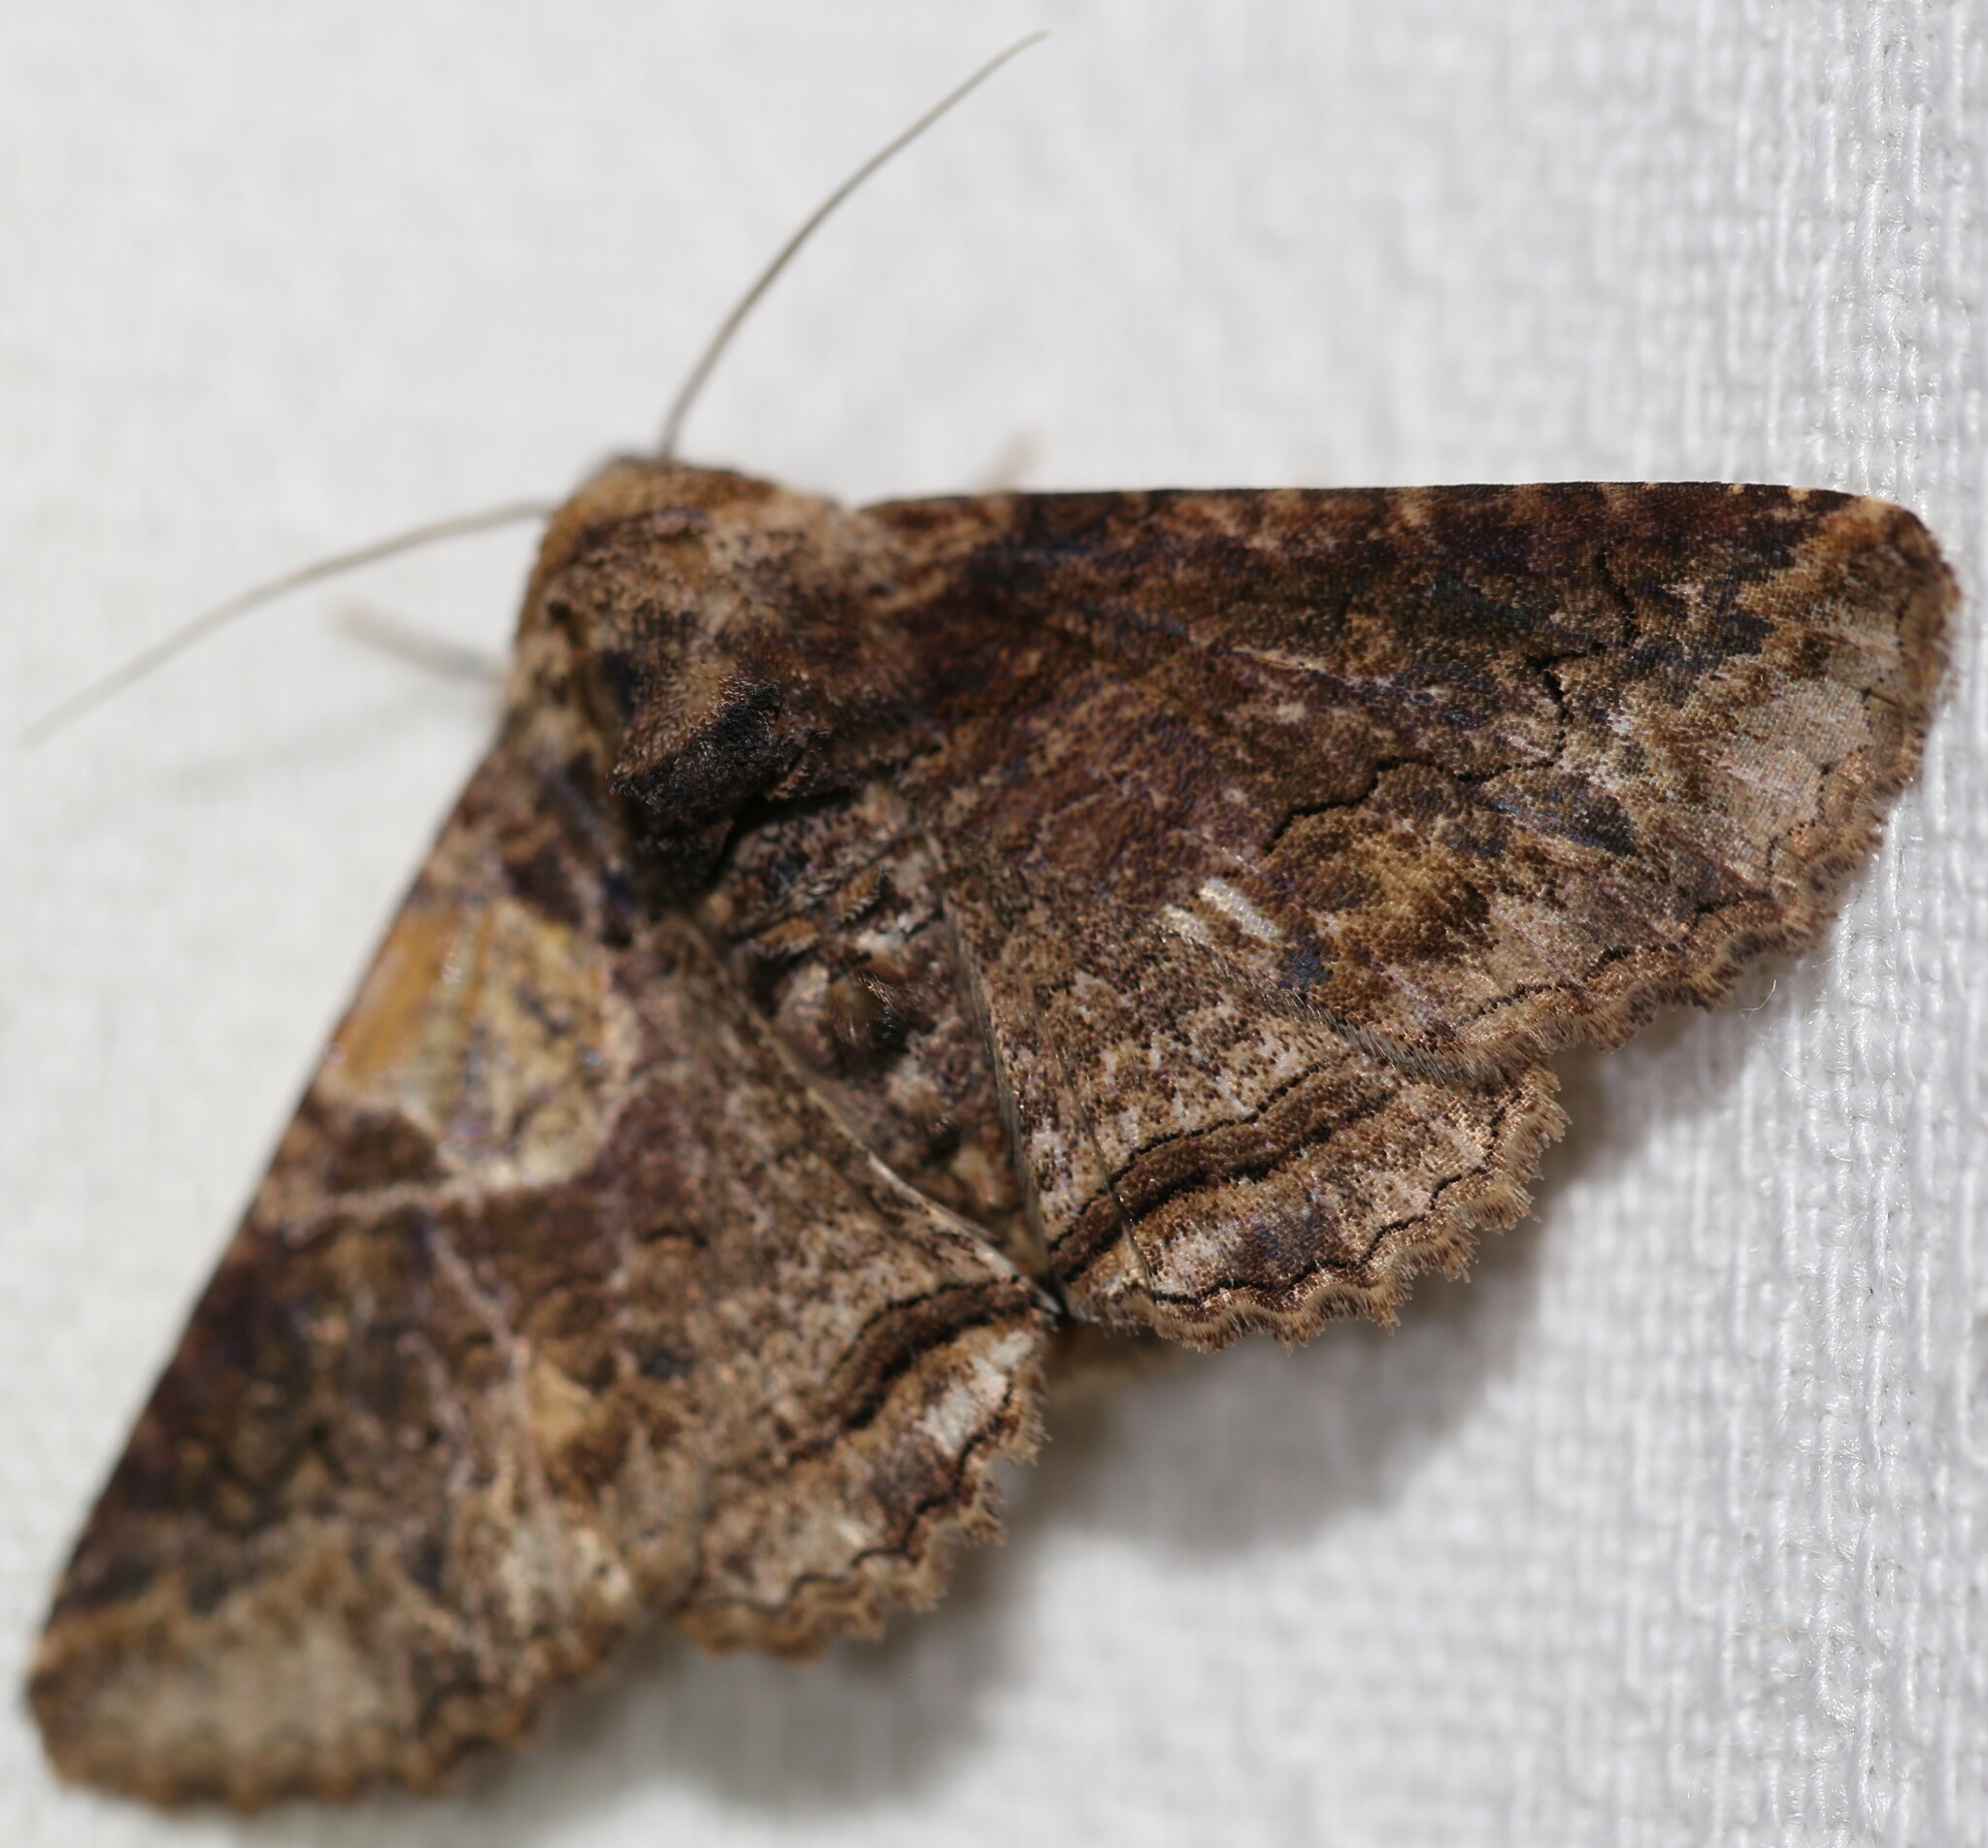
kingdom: Animalia
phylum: Arthropoda
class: Insecta
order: Lepidoptera
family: Erebidae
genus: Pericyma
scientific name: Pericyma cruegeri
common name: Poinciana looper
